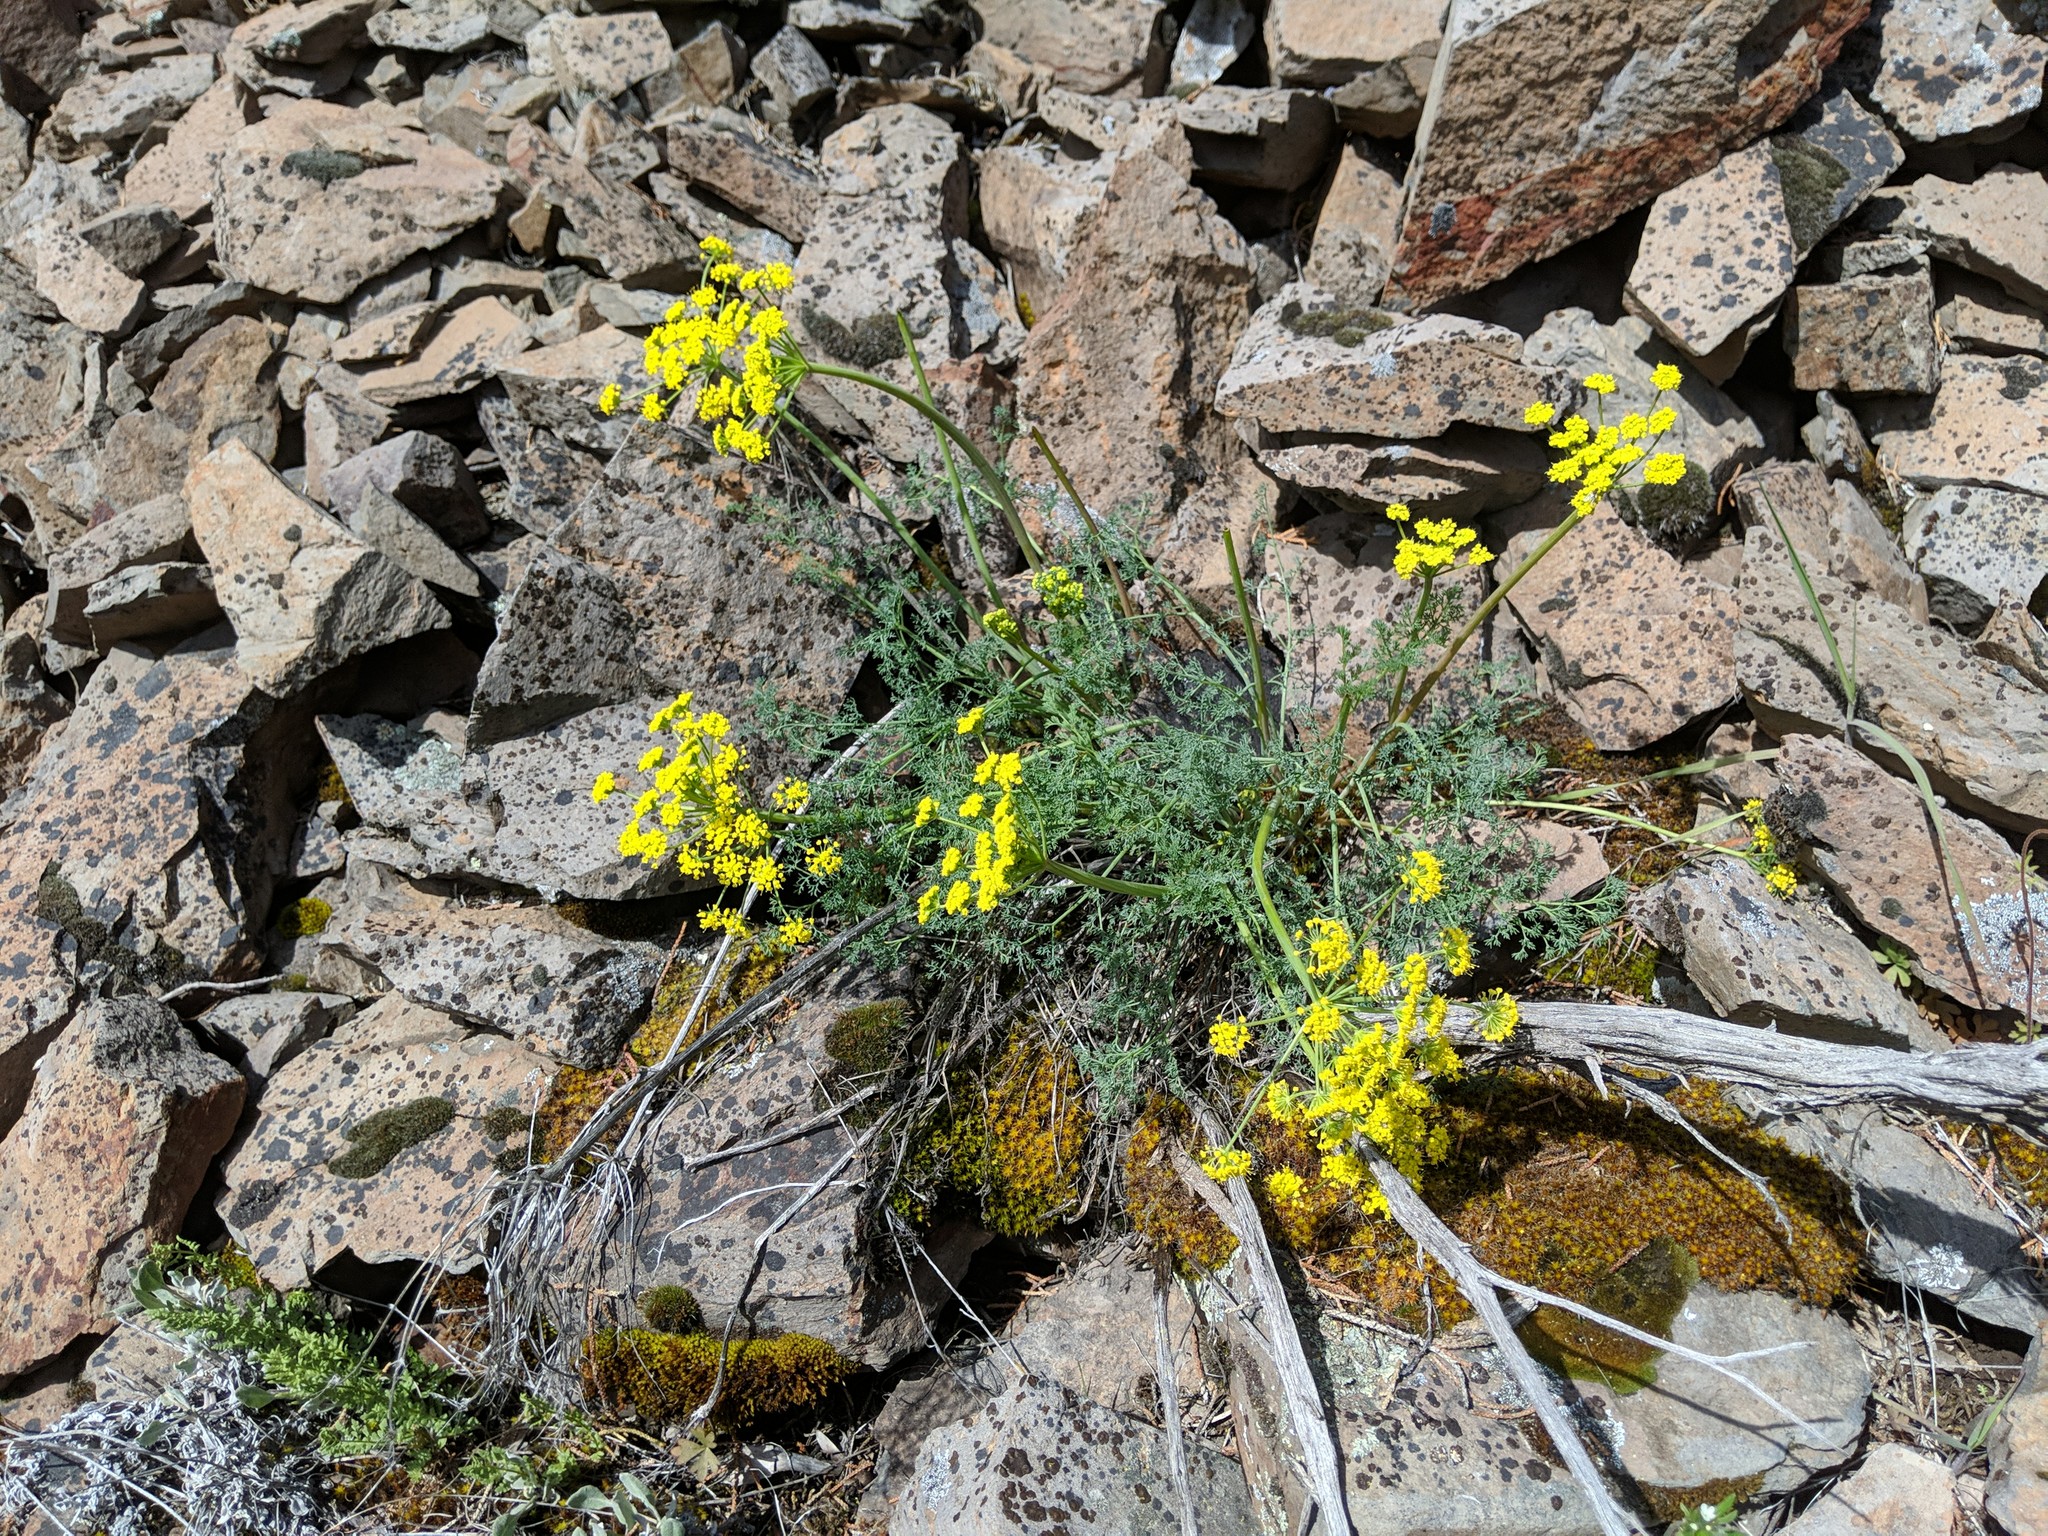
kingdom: Plantae
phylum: Tracheophyta
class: Magnoliopsida
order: Apiales
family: Apiaceae
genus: Lomatium
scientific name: Lomatium papilioniferum
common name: Butterfly lomatium
